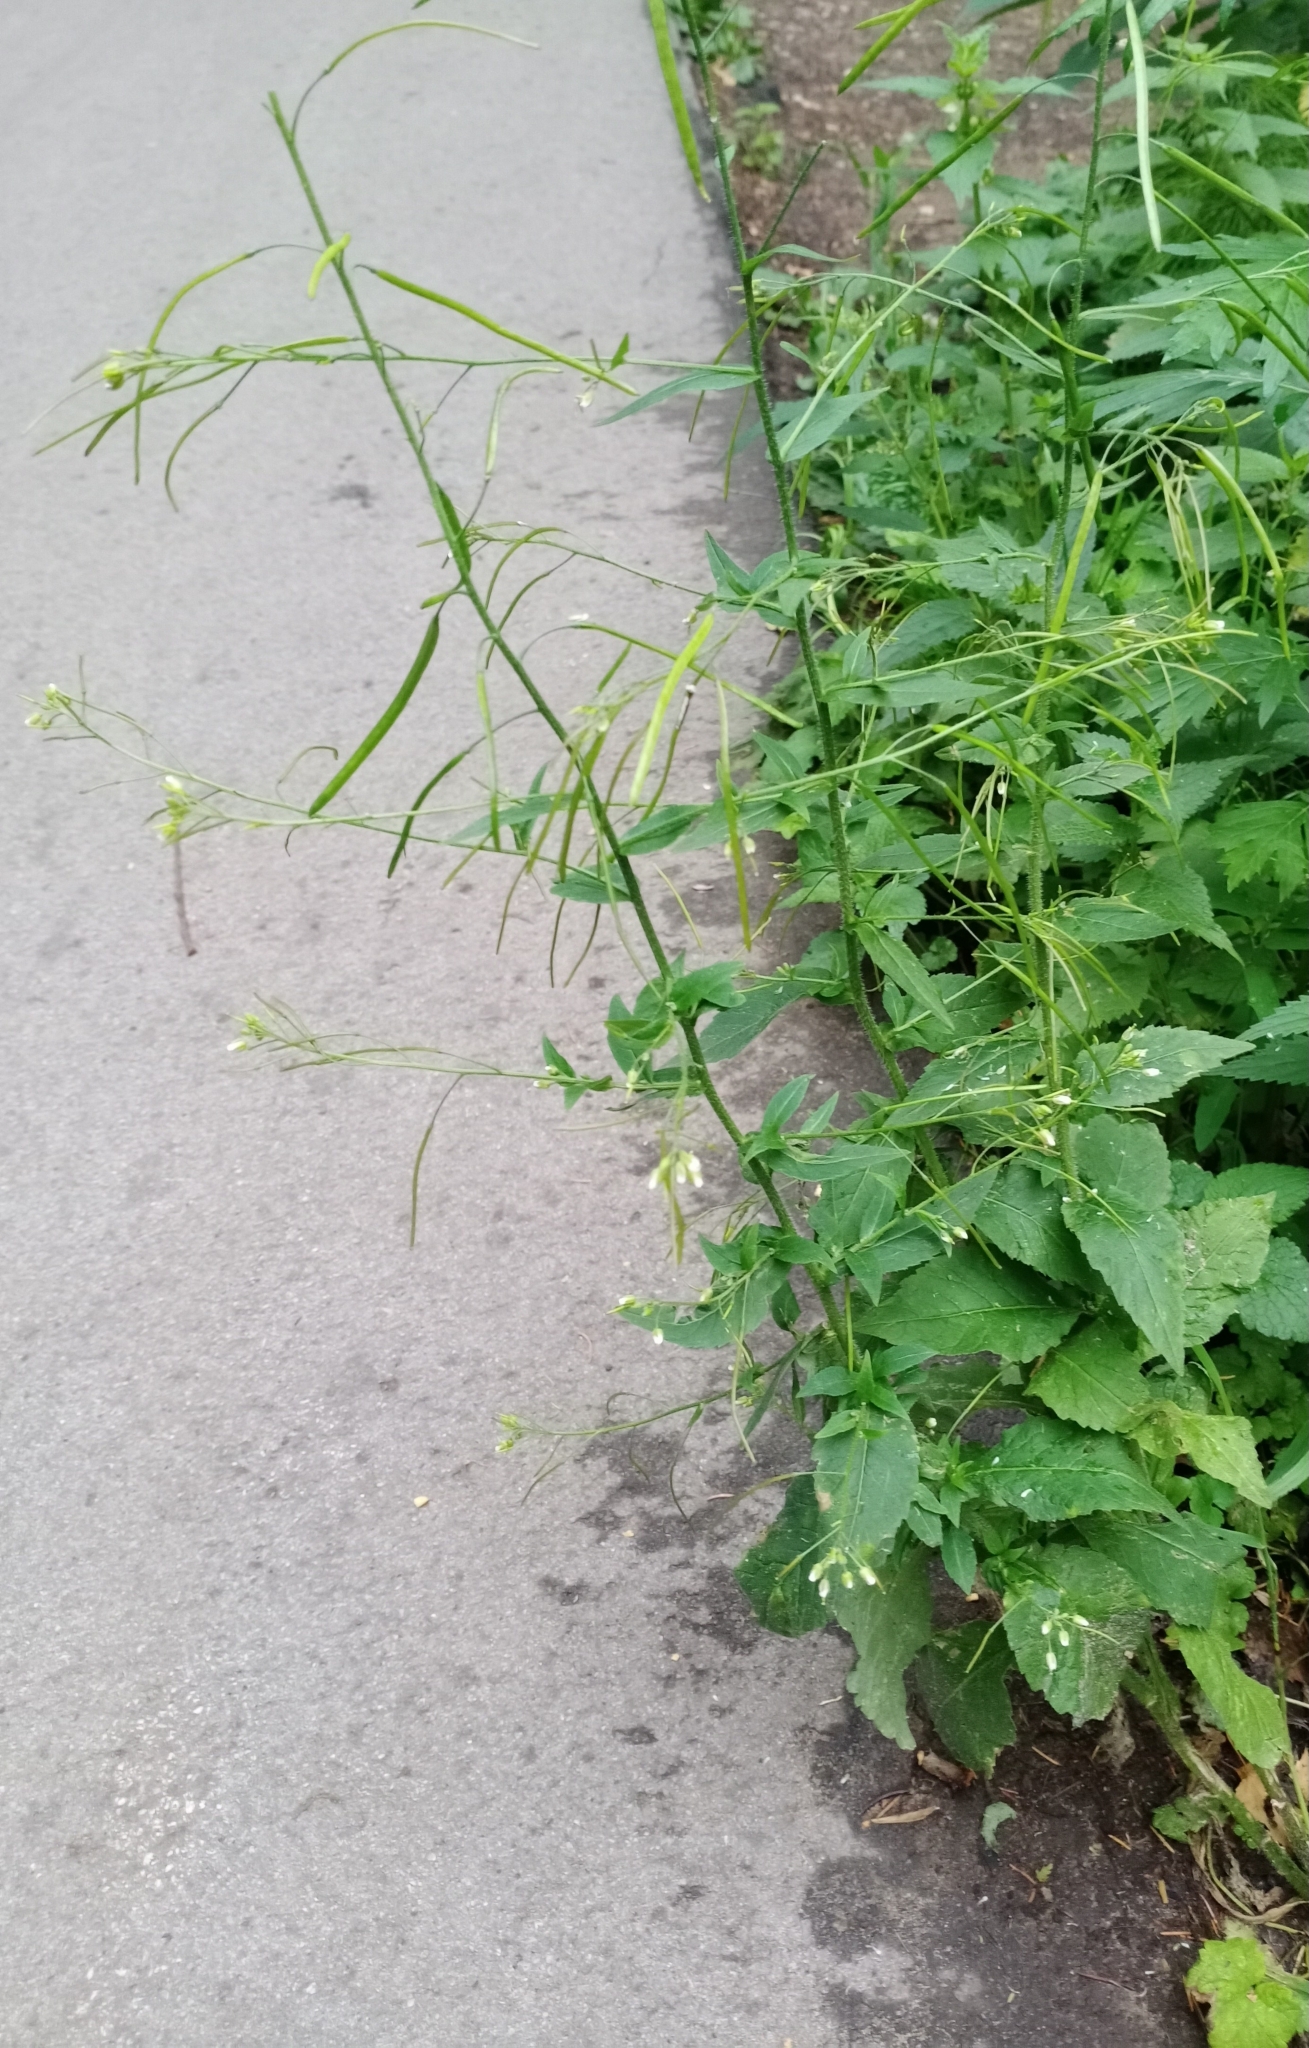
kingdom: Plantae
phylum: Tracheophyta
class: Magnoliopsida
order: Brassicales
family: Brassicaceae
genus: Catolobus
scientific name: Catolobus pendulus
